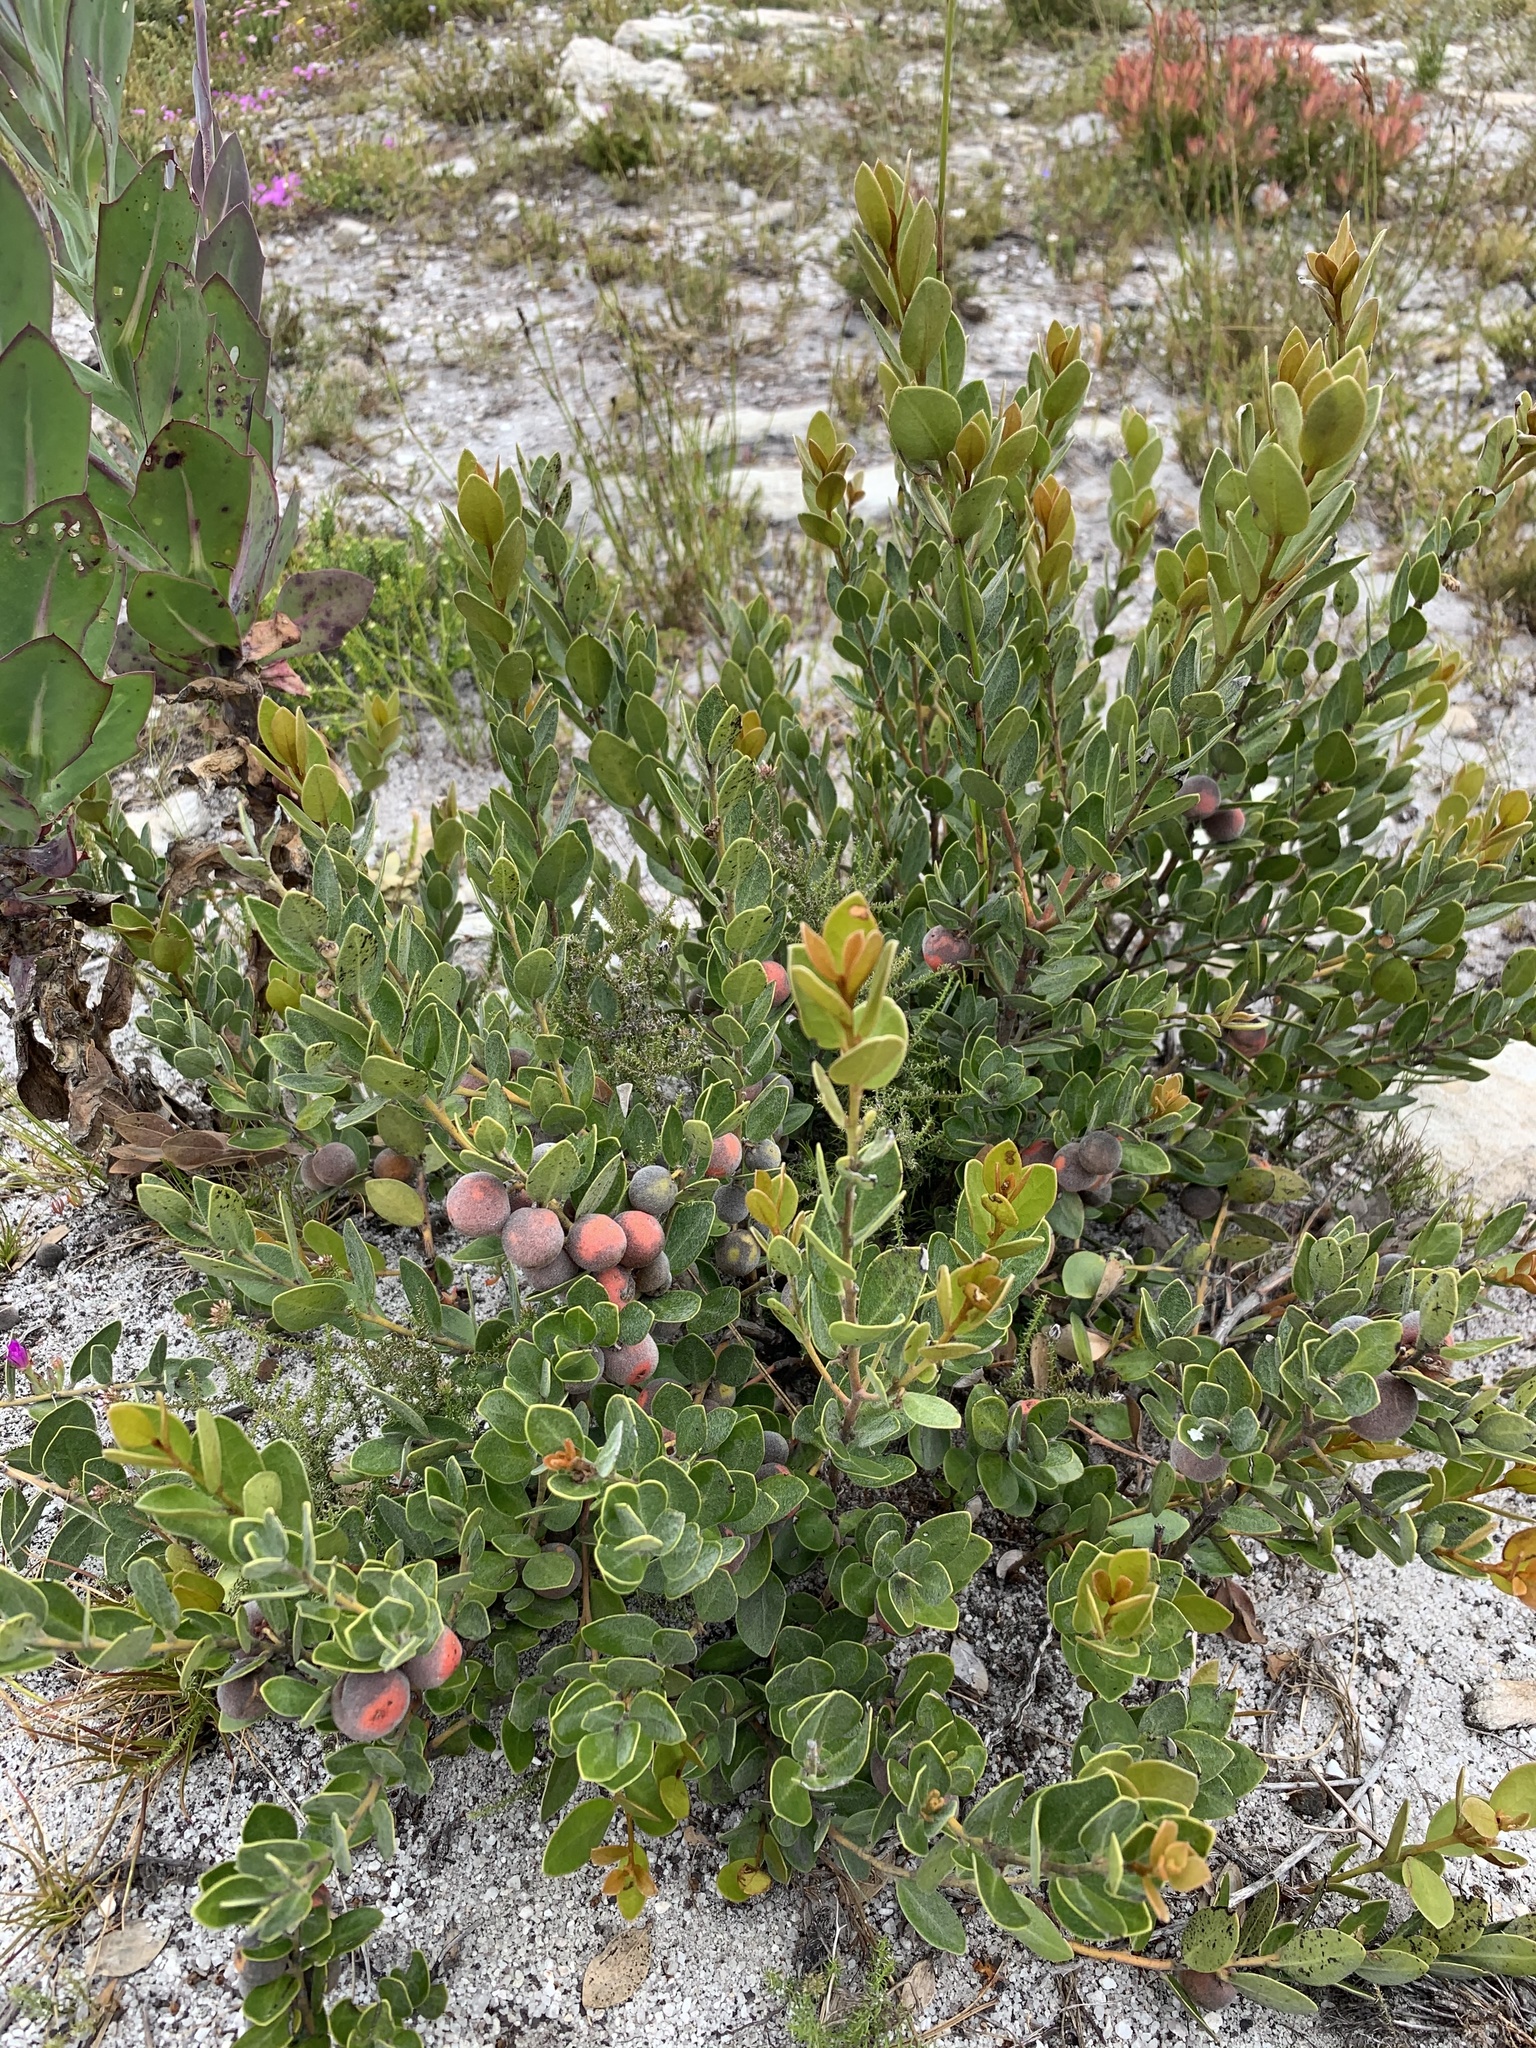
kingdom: Plantae
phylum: Tracheophyta
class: Magnoliopsida
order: Ericales
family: Ebenaceae
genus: Euclea
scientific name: Euclea polyandra
